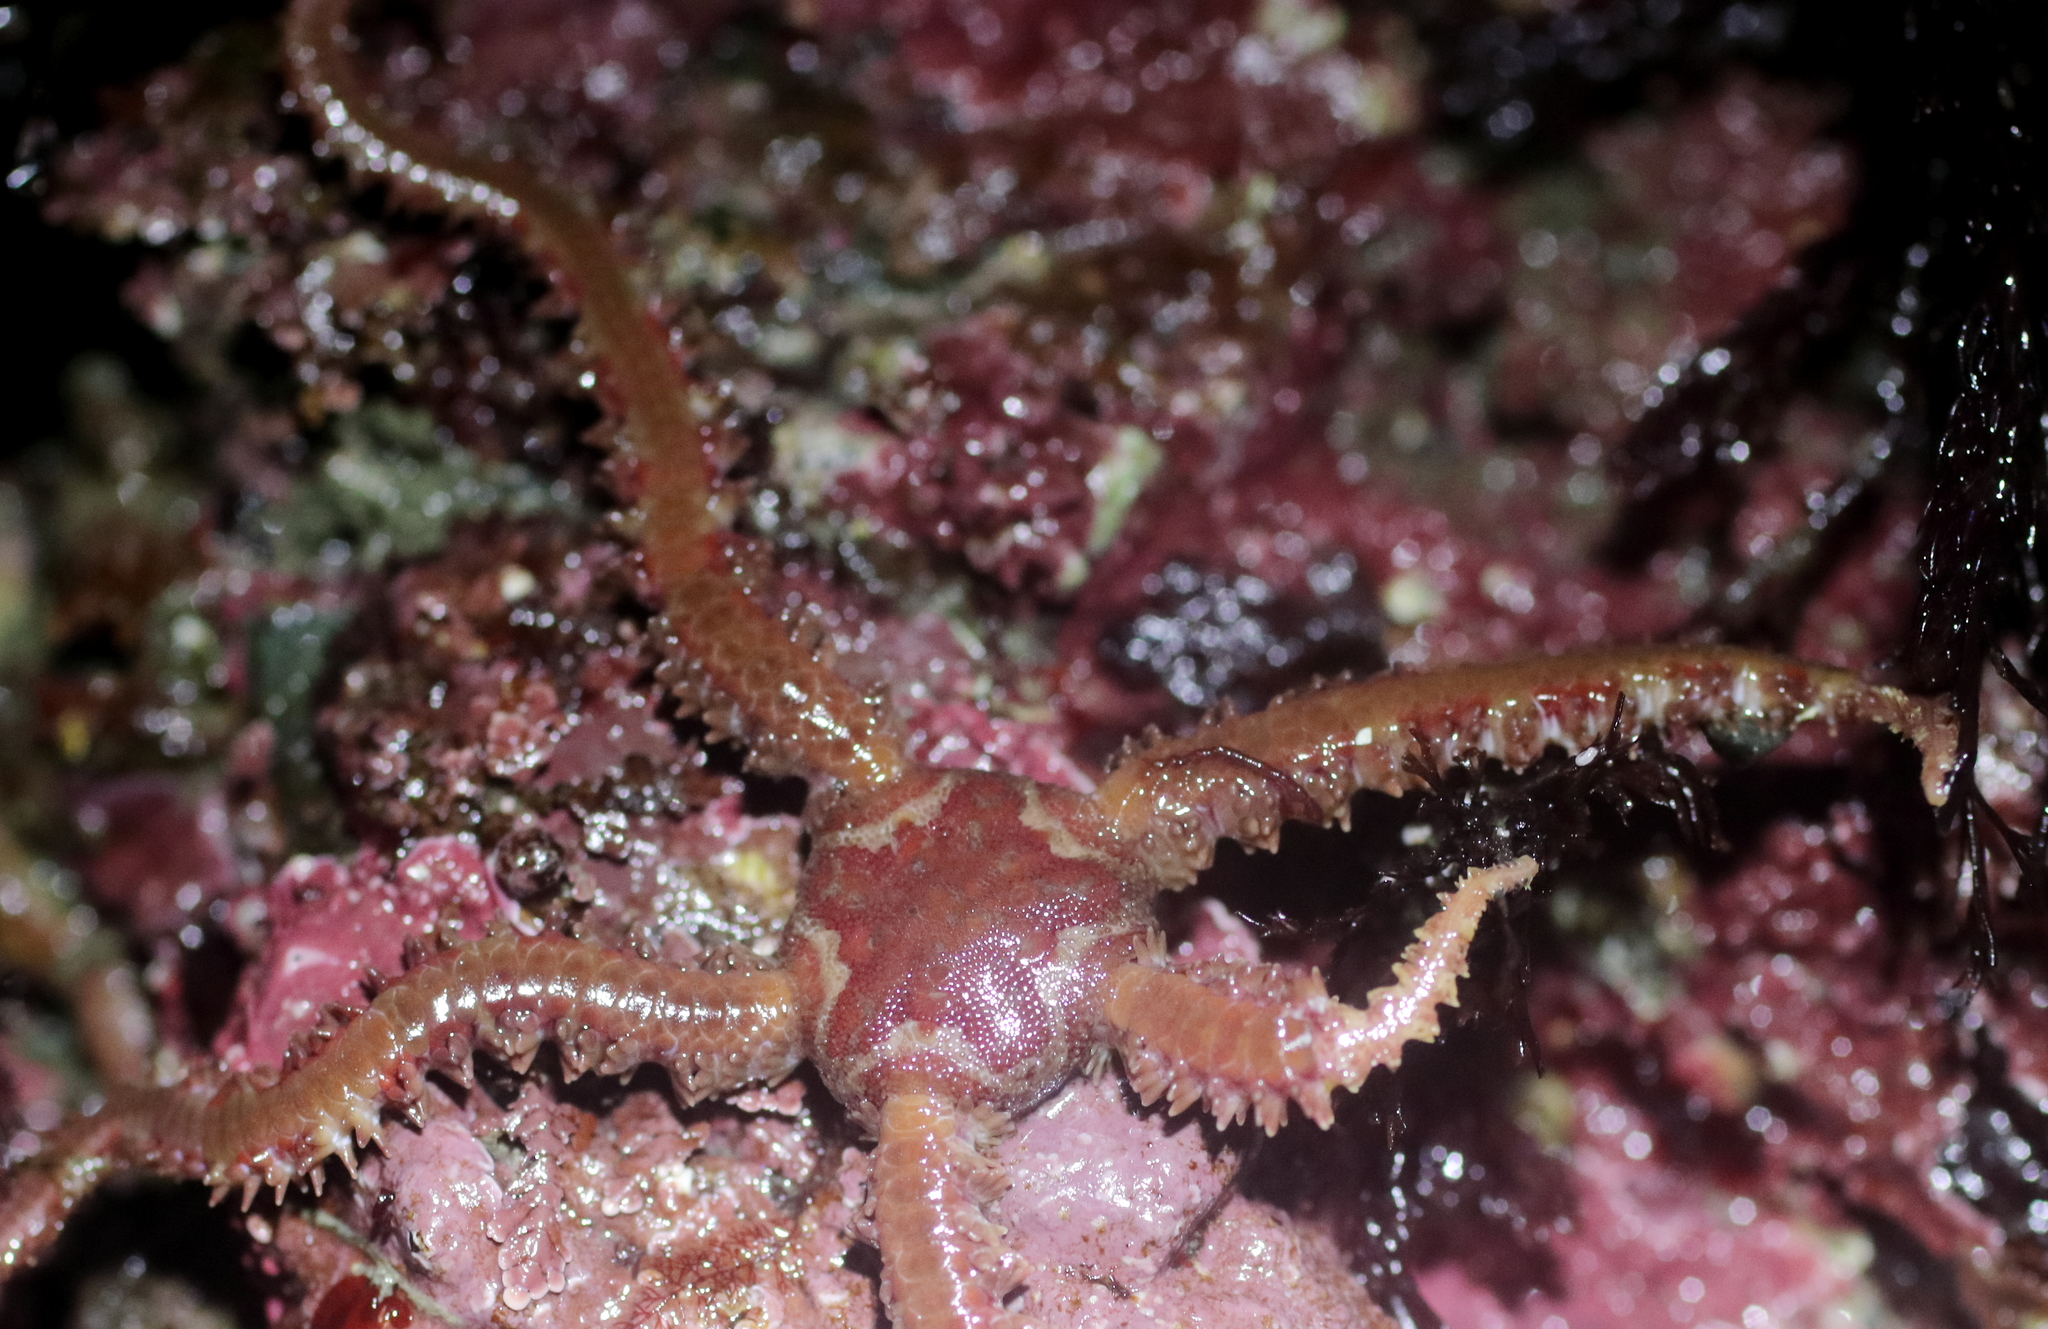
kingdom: Animalia
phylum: Echinodermata
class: Ophiuroidea
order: Amphilepidida
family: Ophiopholidae
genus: Ophiopholis
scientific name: Ophiopholis kennerlyi
